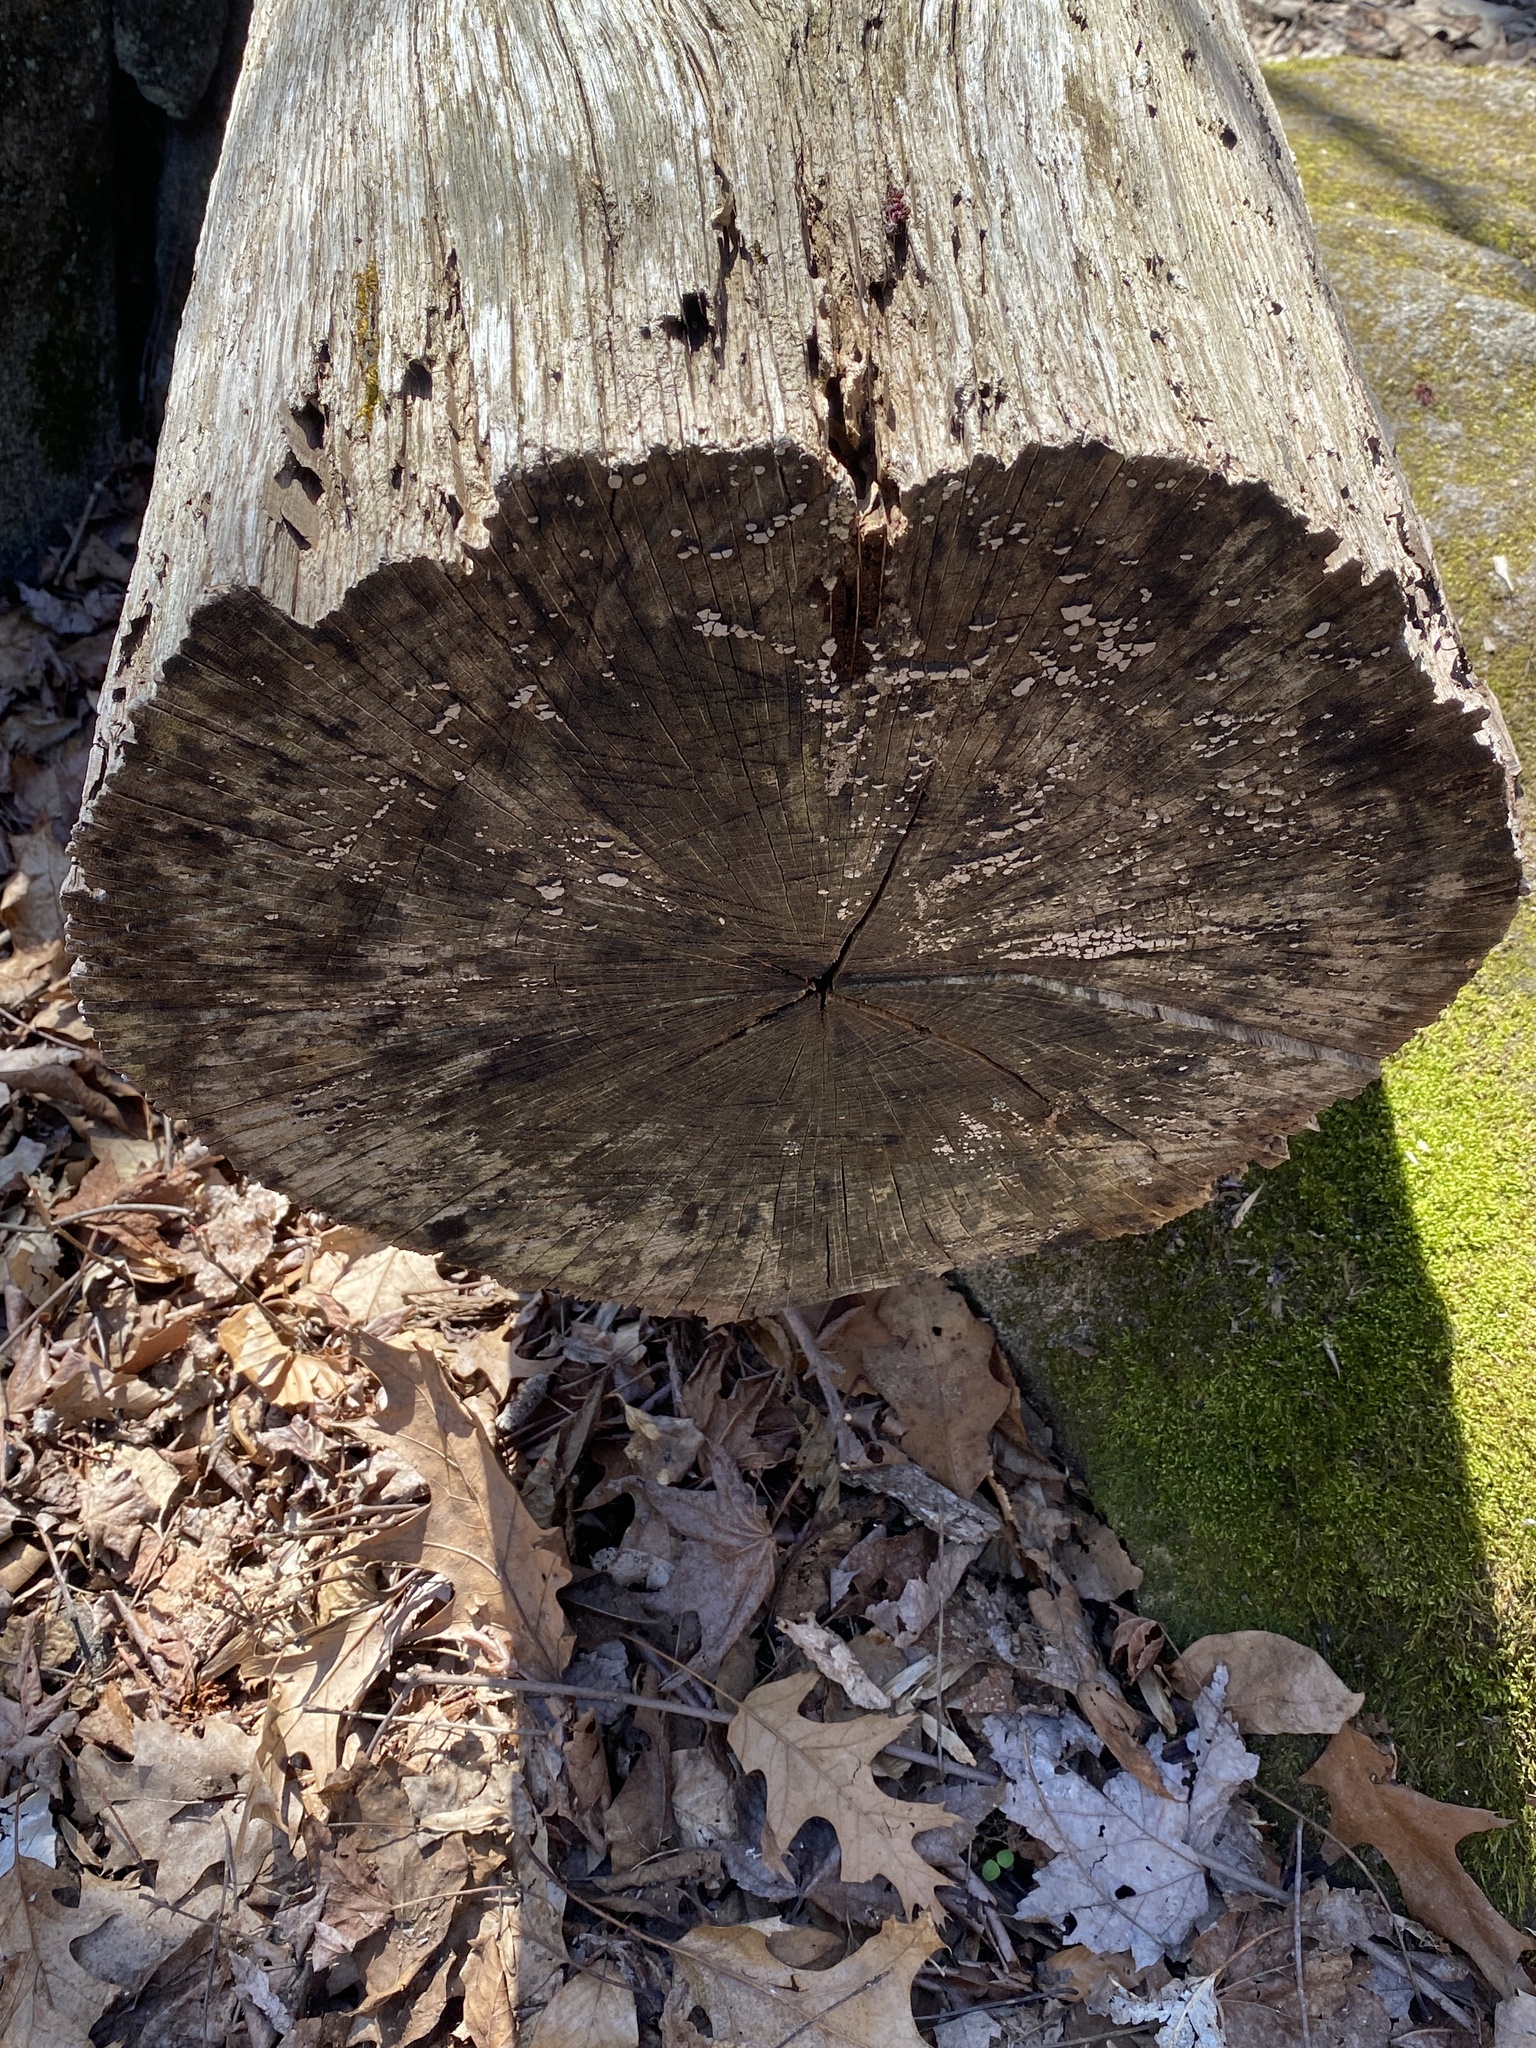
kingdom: Fungi
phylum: Basidiomycota
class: Agaricomycetes
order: Russulales
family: Stereaceae
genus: Xylobolus
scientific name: Xylobolus frustulatus
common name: Ceramic parchment
